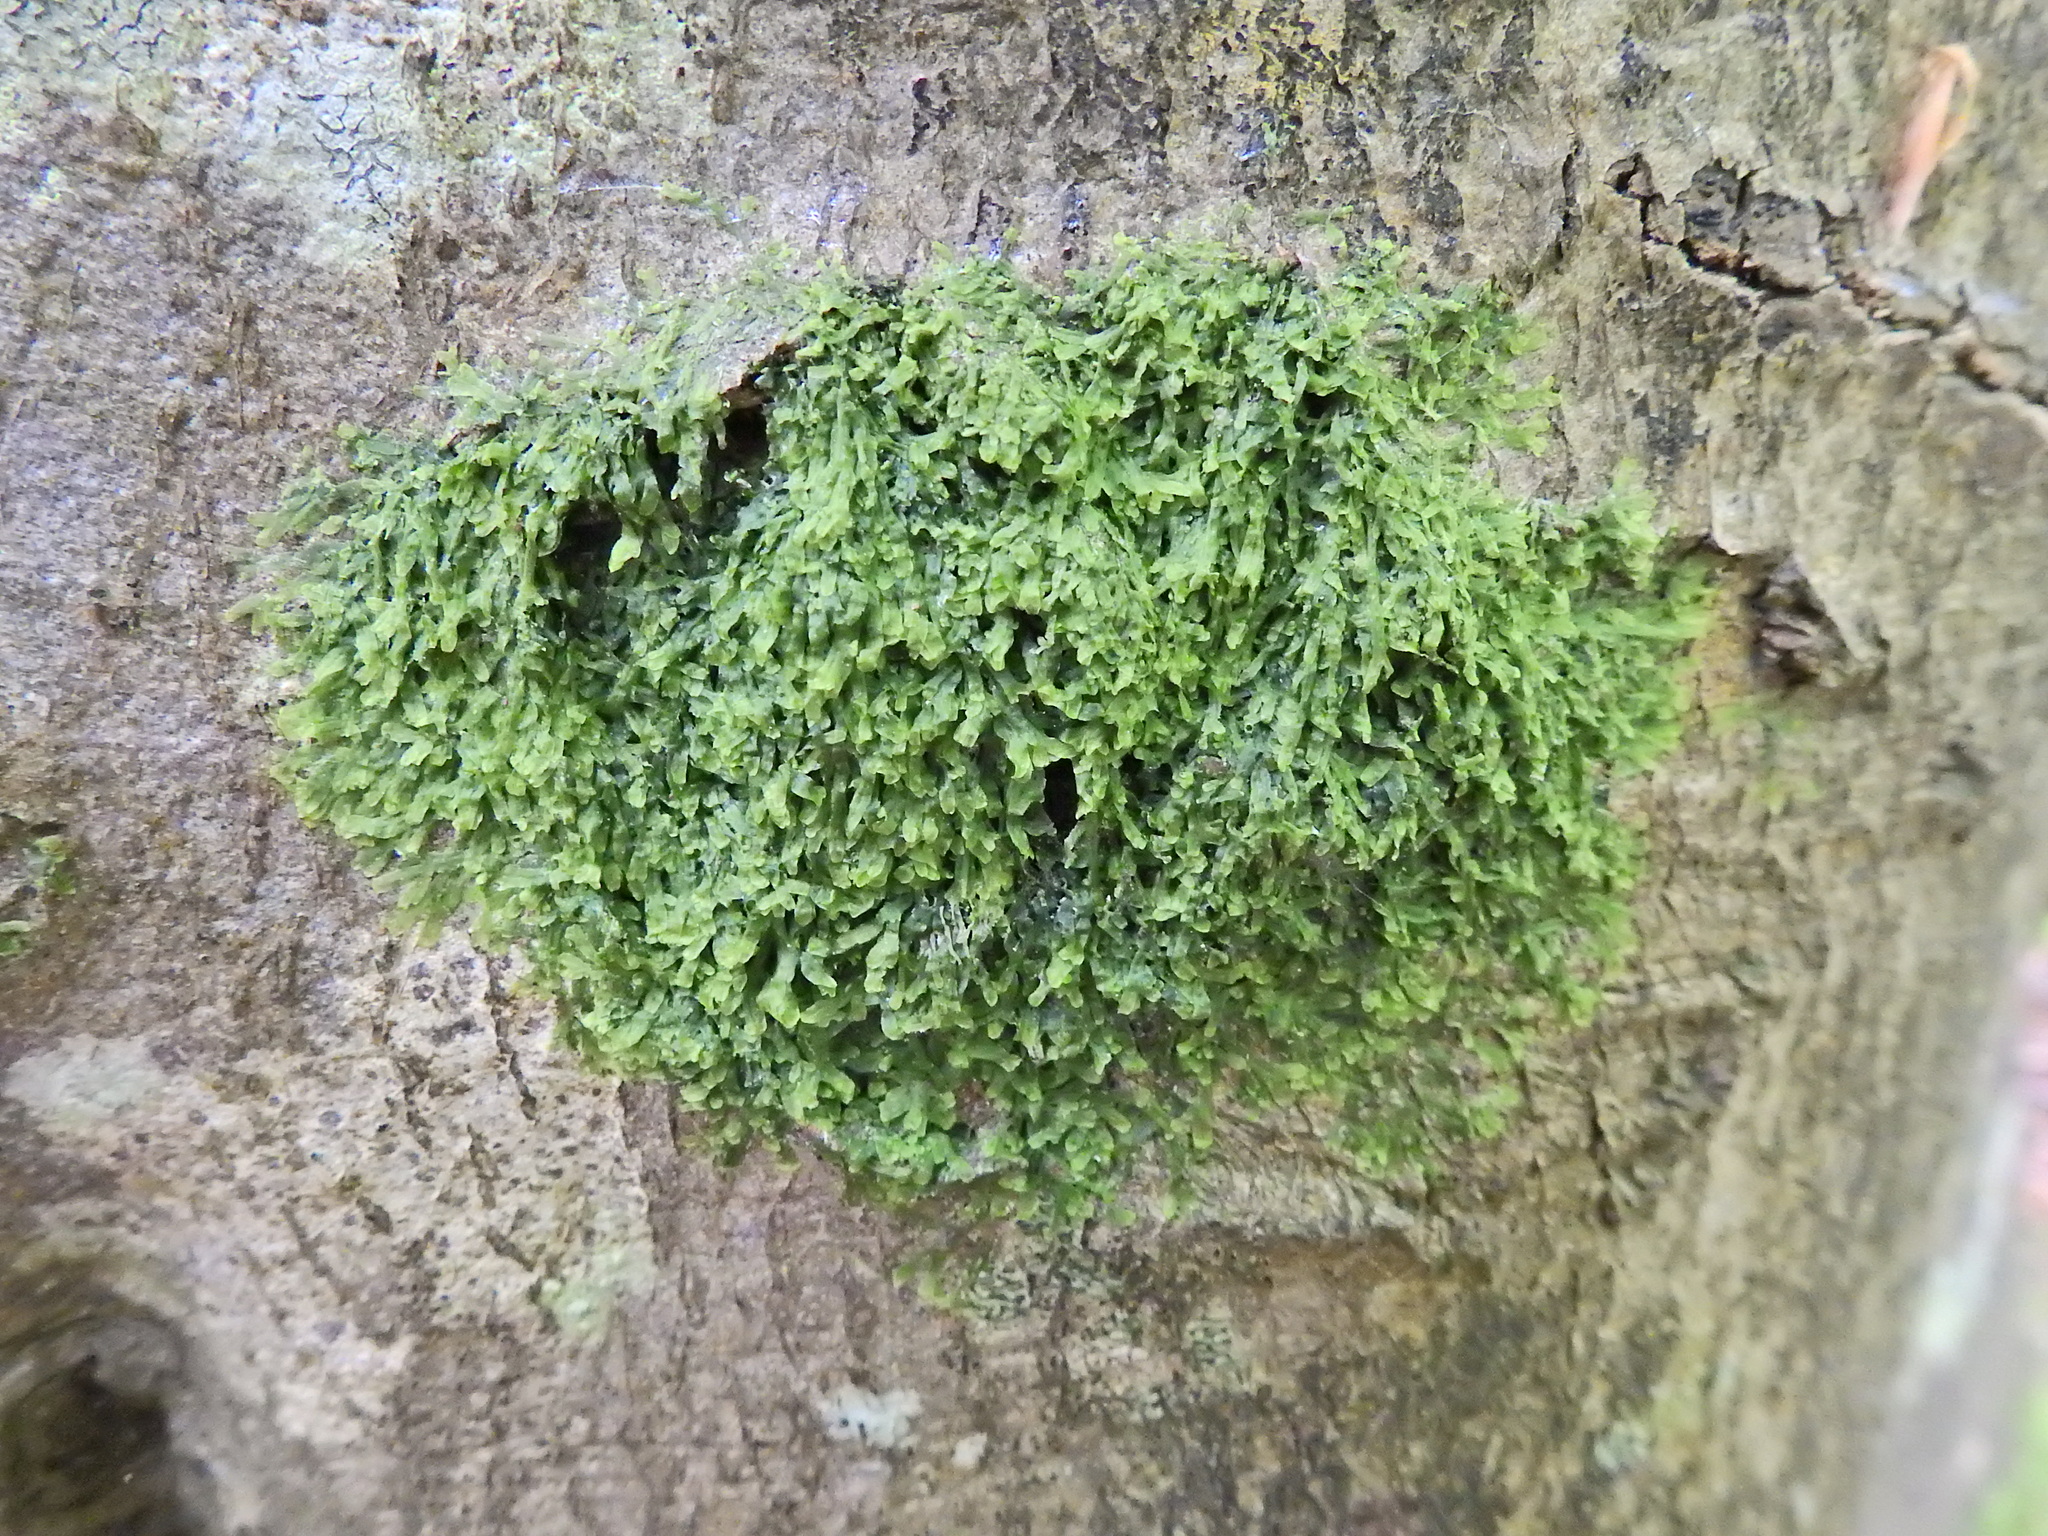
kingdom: Plantae
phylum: Marchantiophyta
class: Jungermanniopsida
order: Metzgeriales
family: Metzgeriaceae
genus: Metzgeria
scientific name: Metzgeria furcata
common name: Forked veilwort
